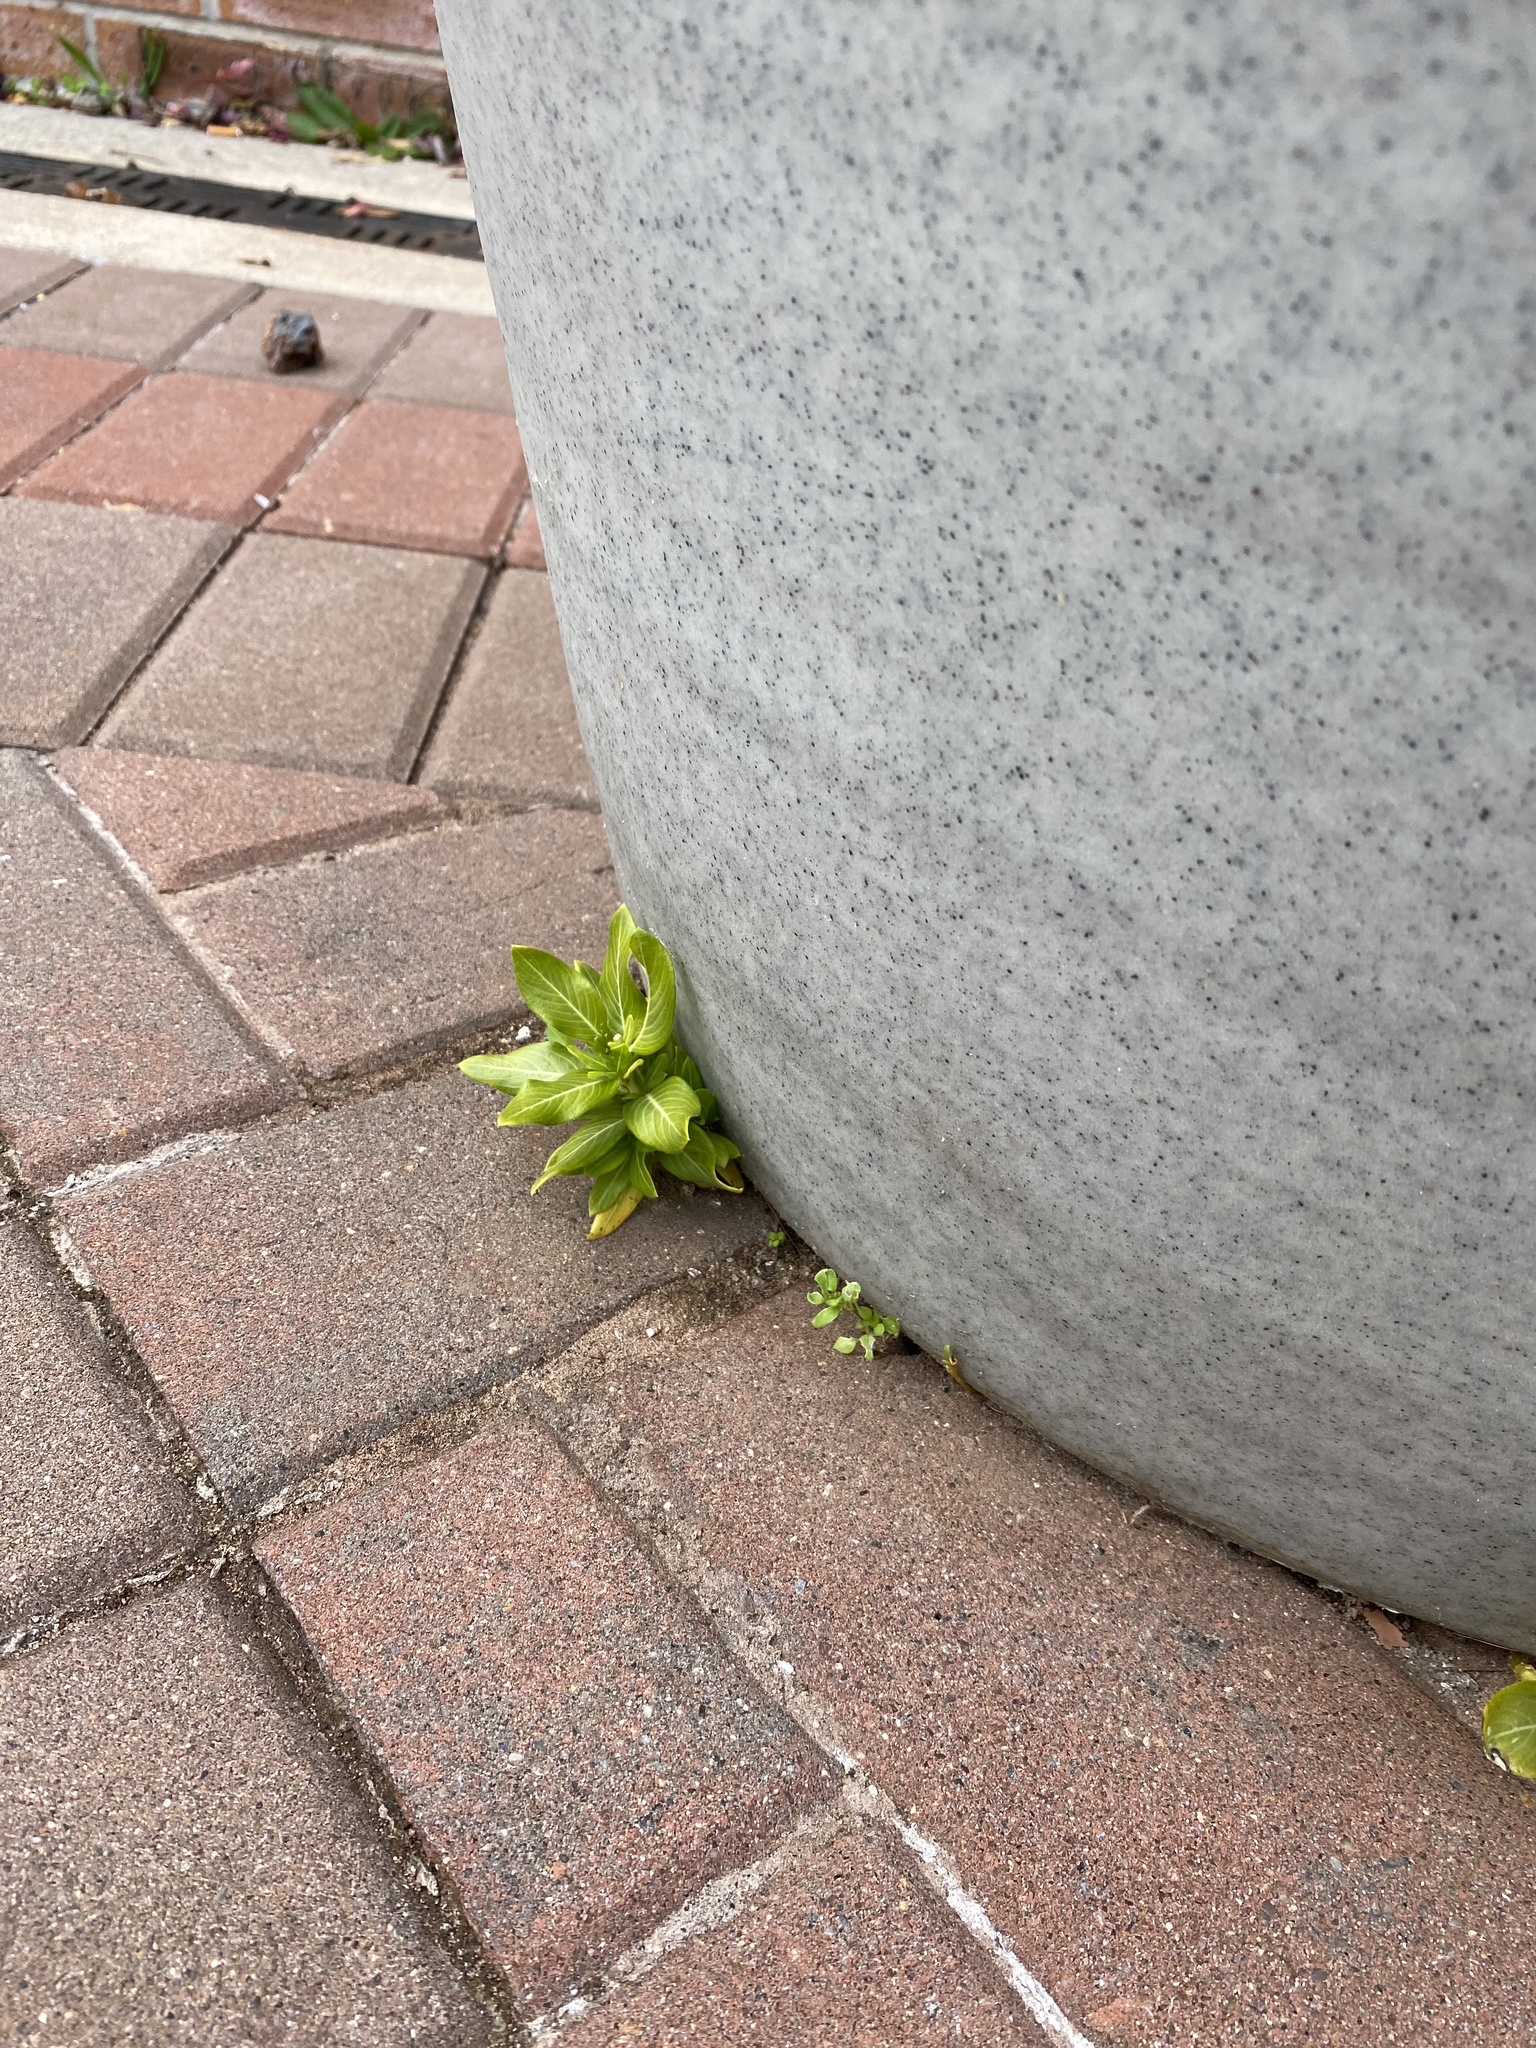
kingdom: Plantae
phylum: Tracheophyta
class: Magnoliopsida
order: Gentianales
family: Apocynaceae
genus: Catharanthus
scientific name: Catharanthus roseus
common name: Madagascar periwinkle
